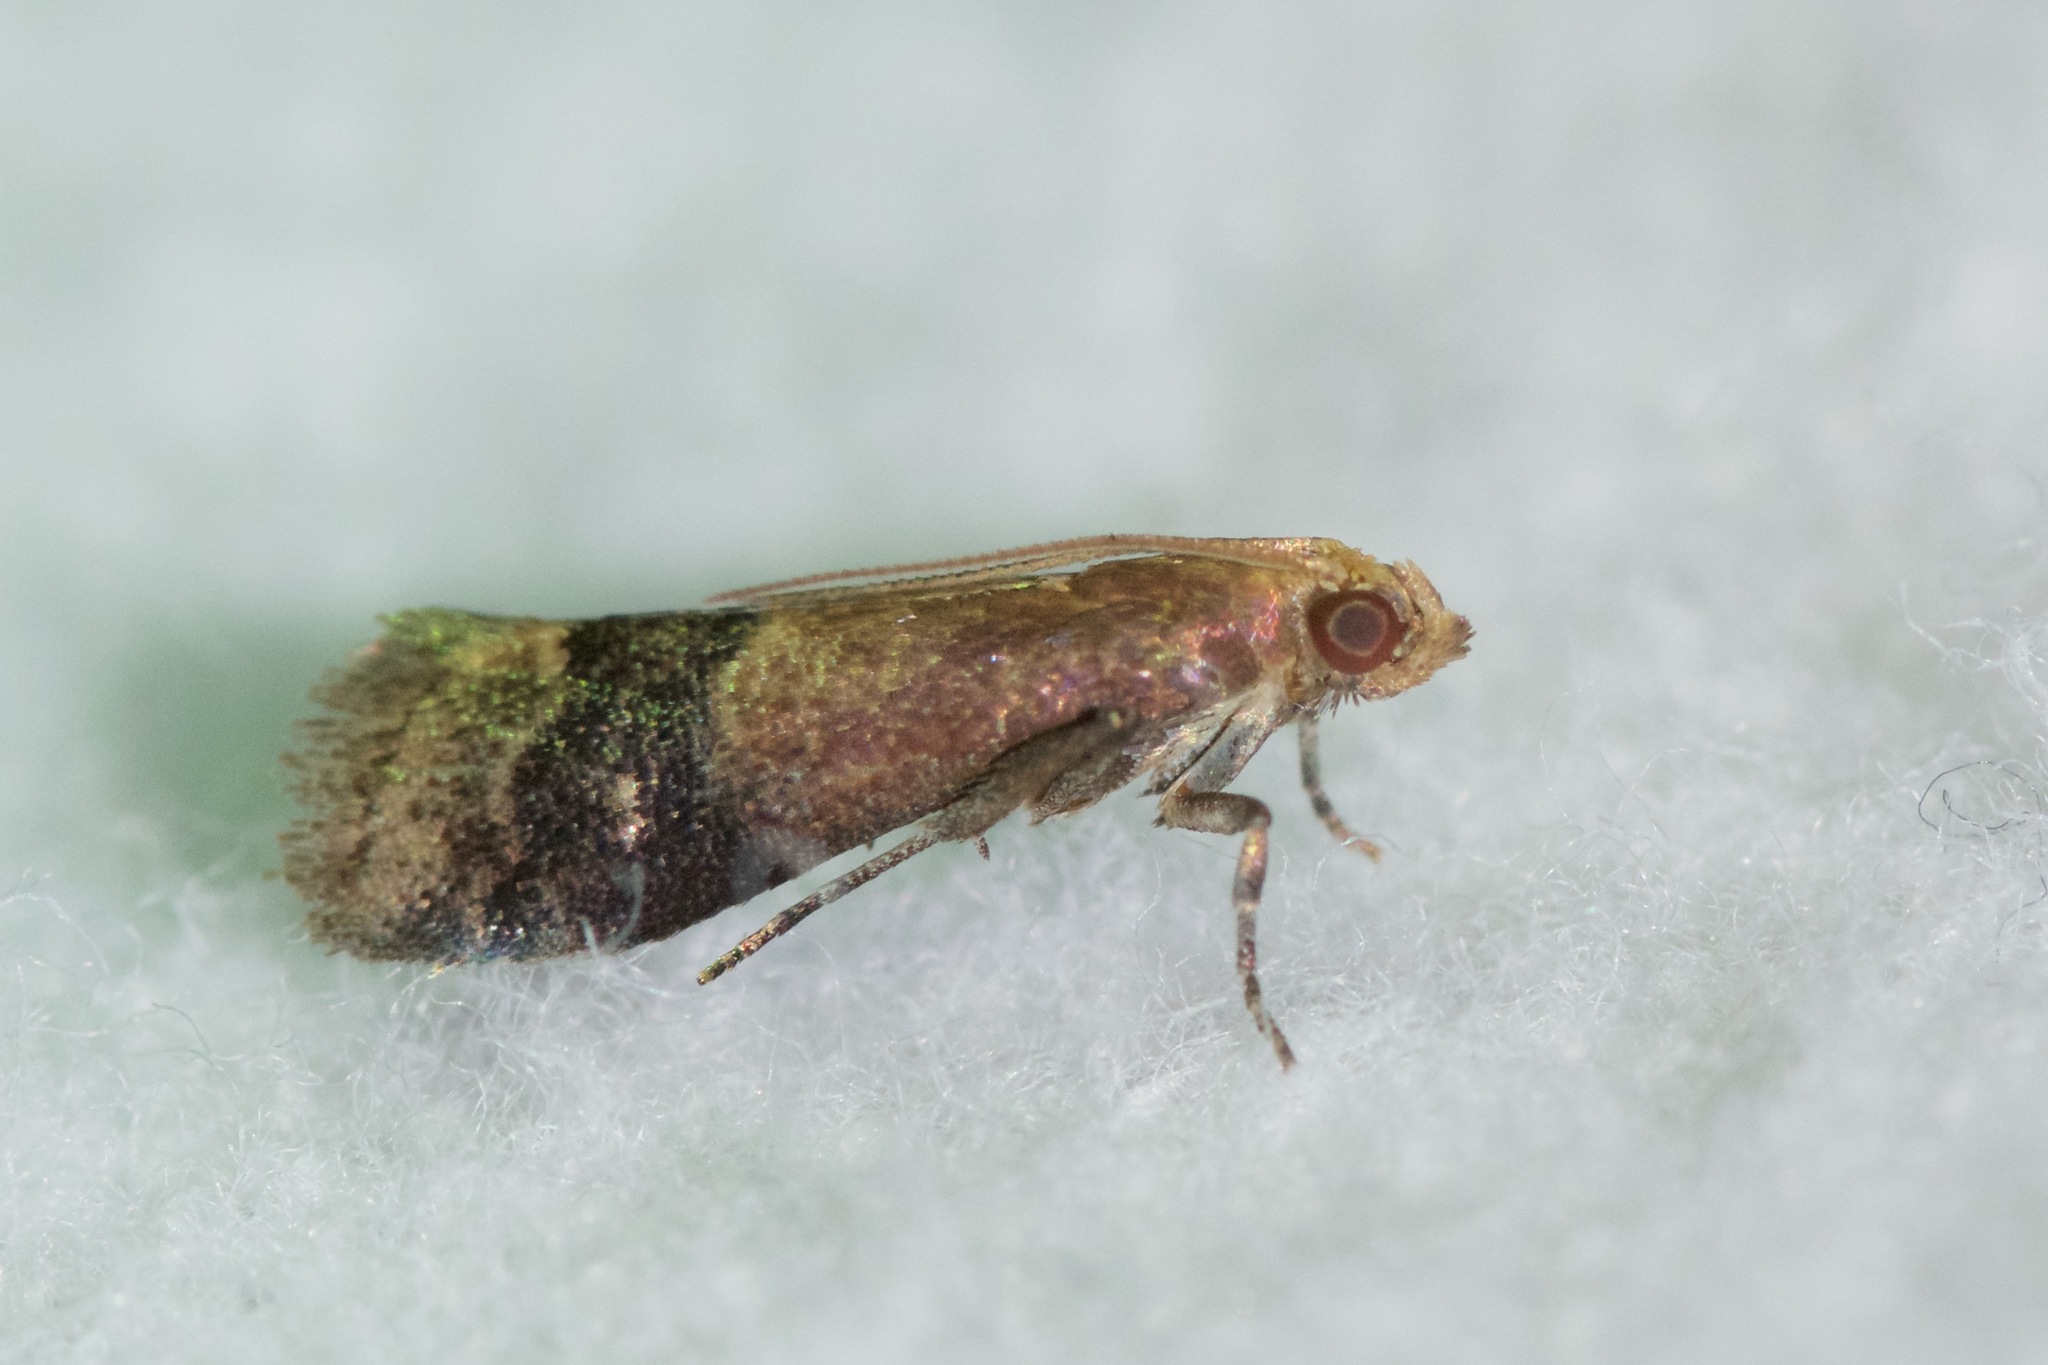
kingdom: Animalia
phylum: Arthropoda
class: Insecta
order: Lepidoptera
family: Pyralidae
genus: Eulogia
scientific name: Eulogia ochrifrontella
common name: Broad-banded eulogia moth
